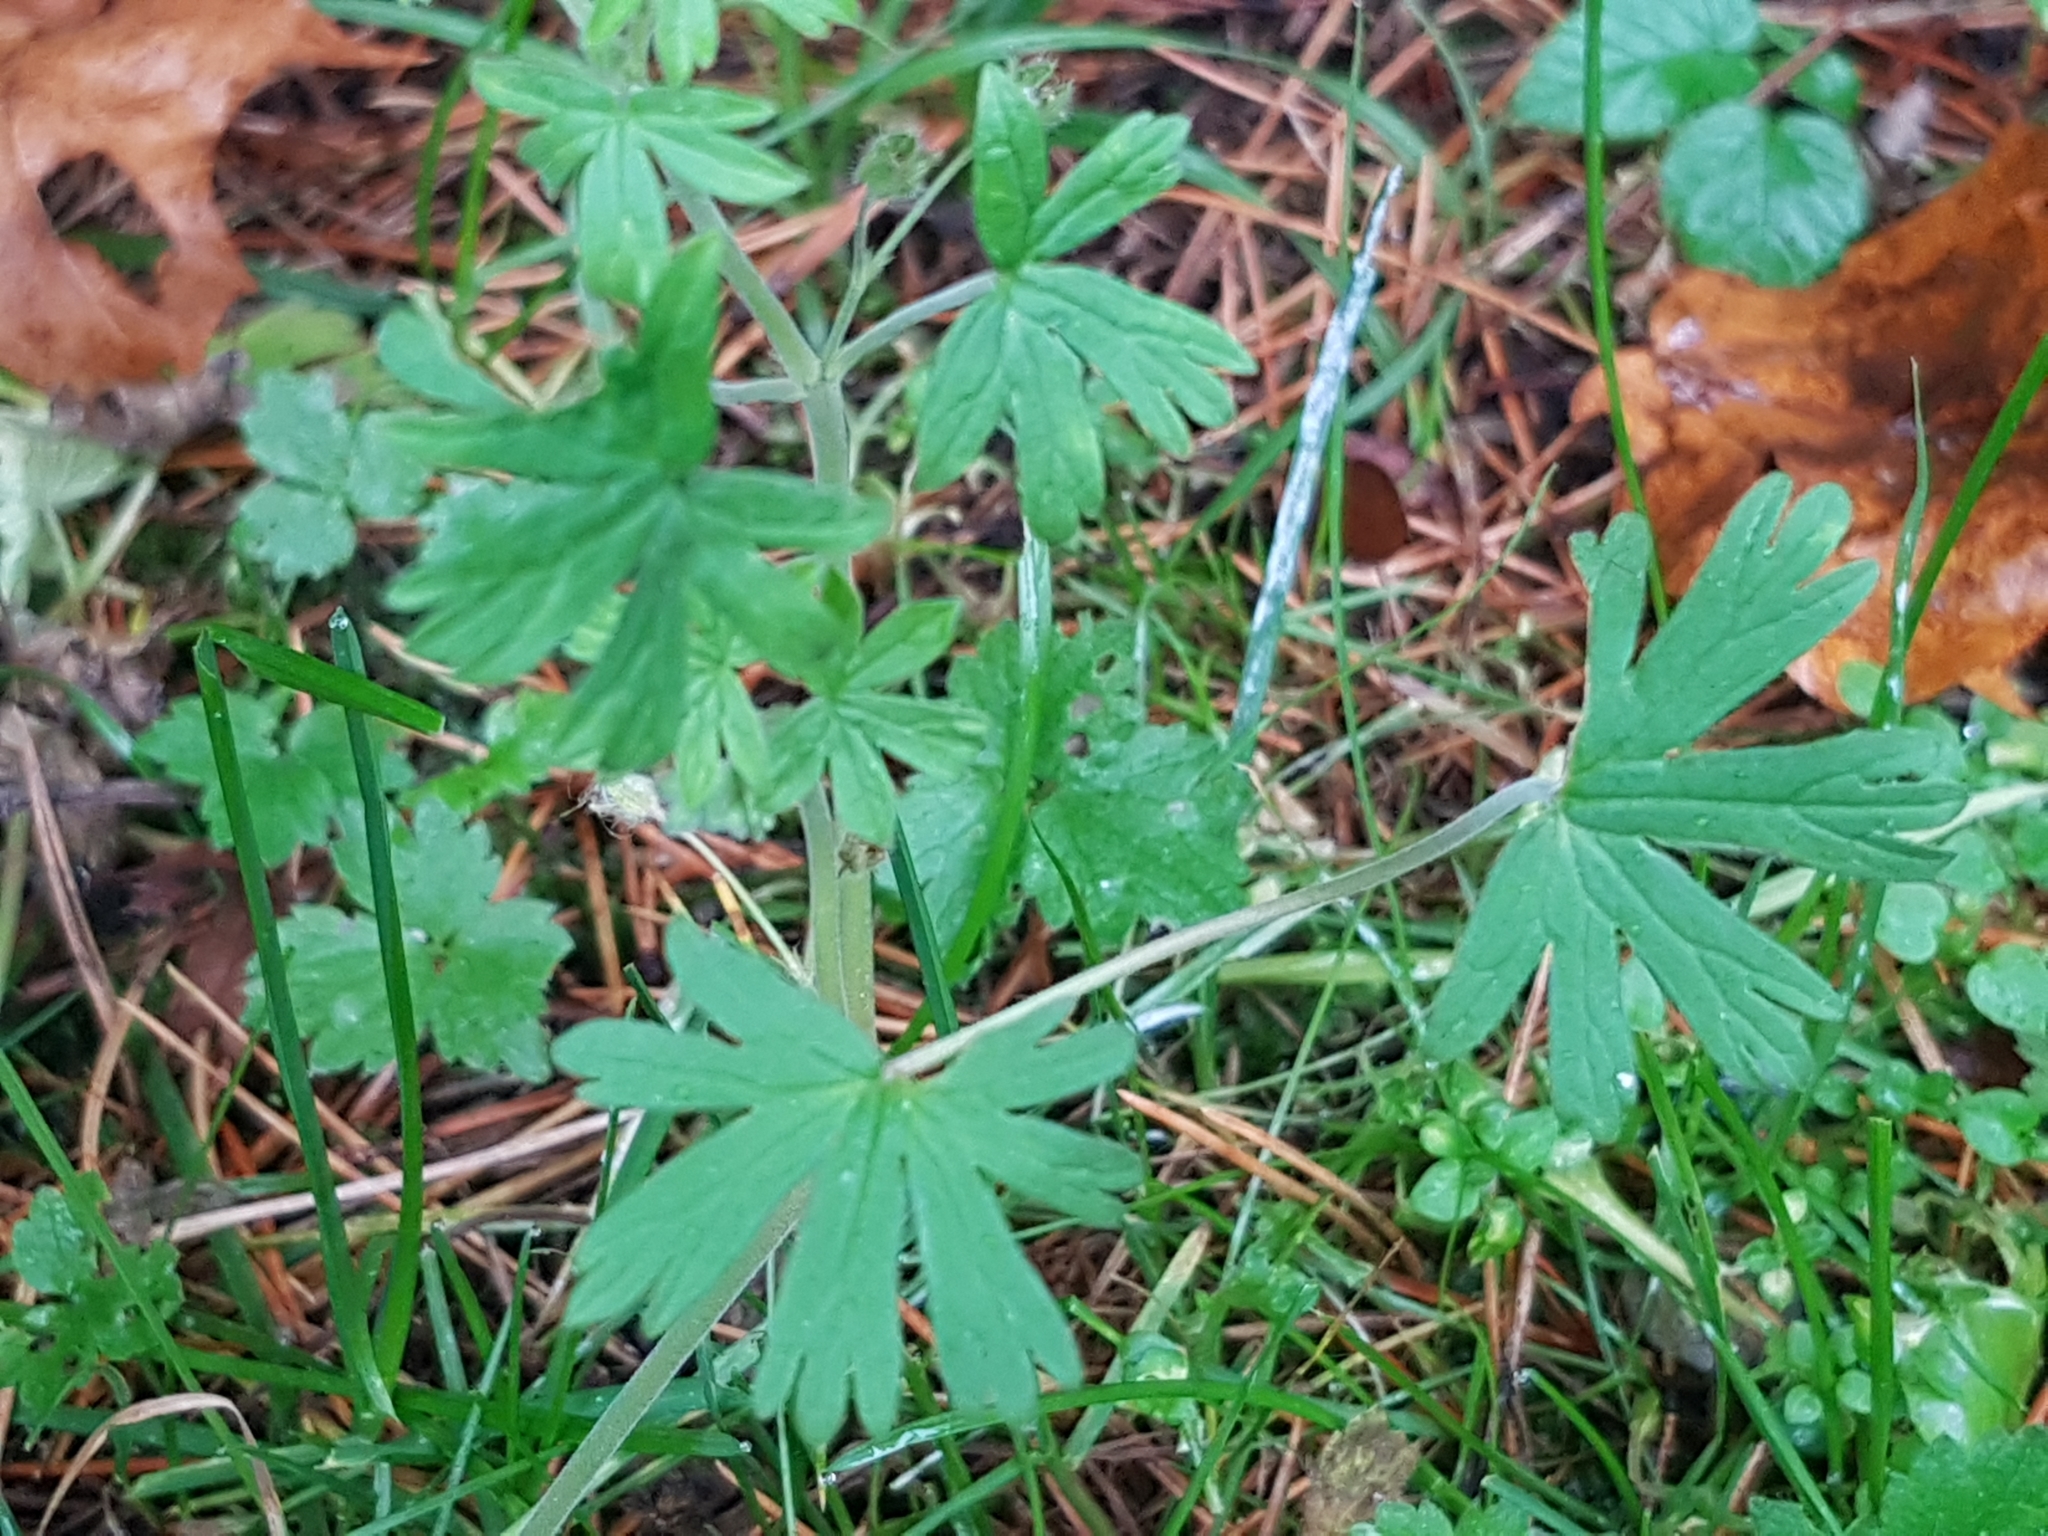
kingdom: Plantae
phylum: Tracheophyta
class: Magnoliopsida
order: Geraniales
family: Geraniaceae
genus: Geranium
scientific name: Geranium pusillum
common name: Small geranium
